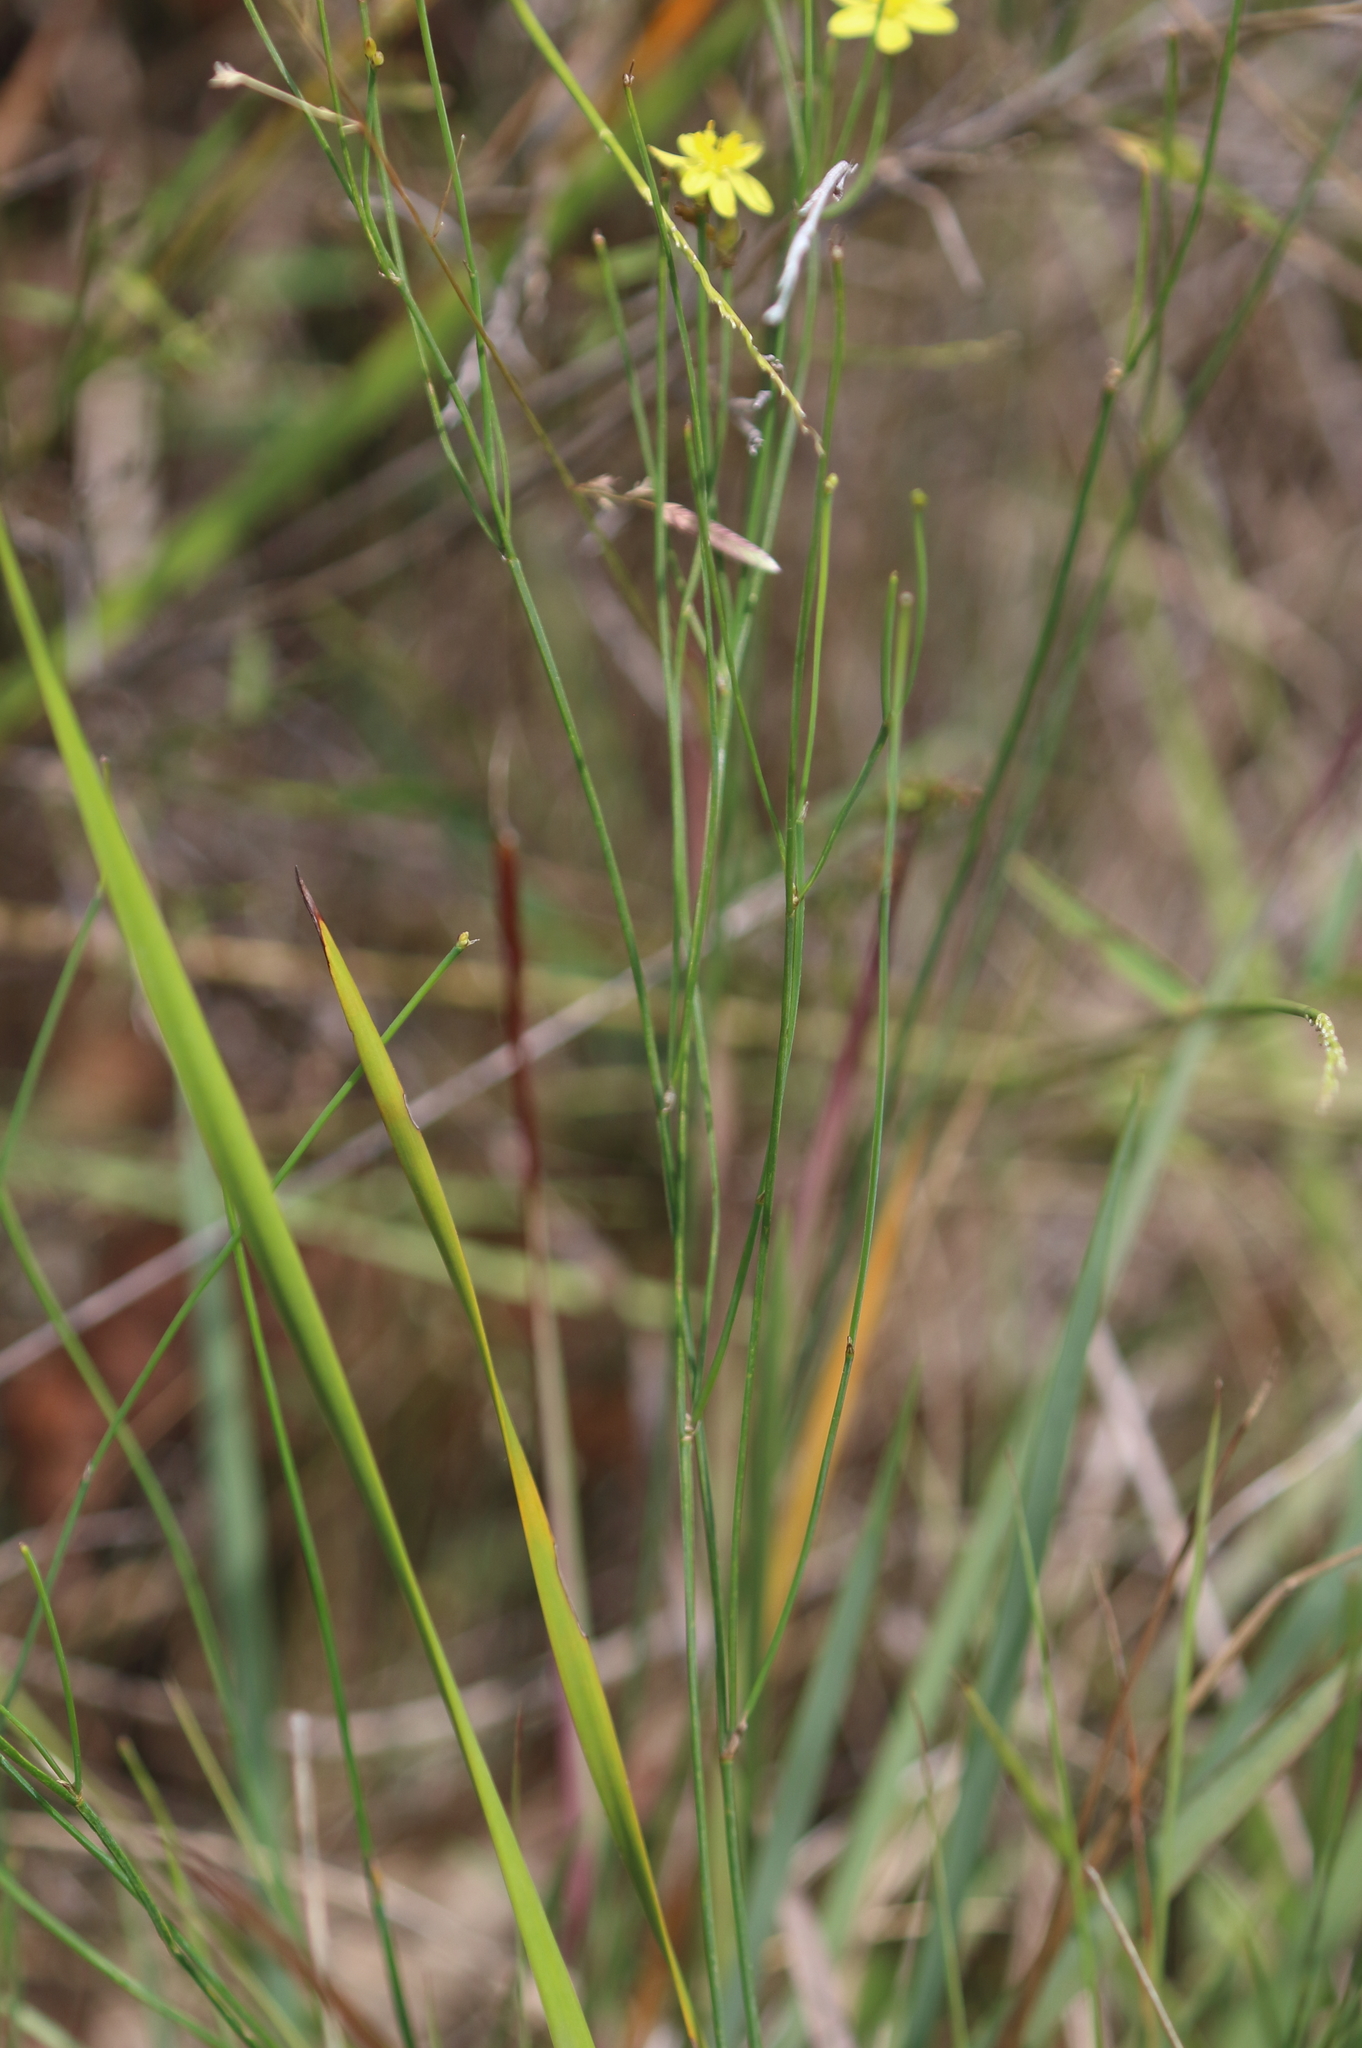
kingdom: Plantae
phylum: Tracheophyta
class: Liliopsida
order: Asparagales
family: Asphodelaceae
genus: Tricoryne
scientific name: Tricoryne elatior
